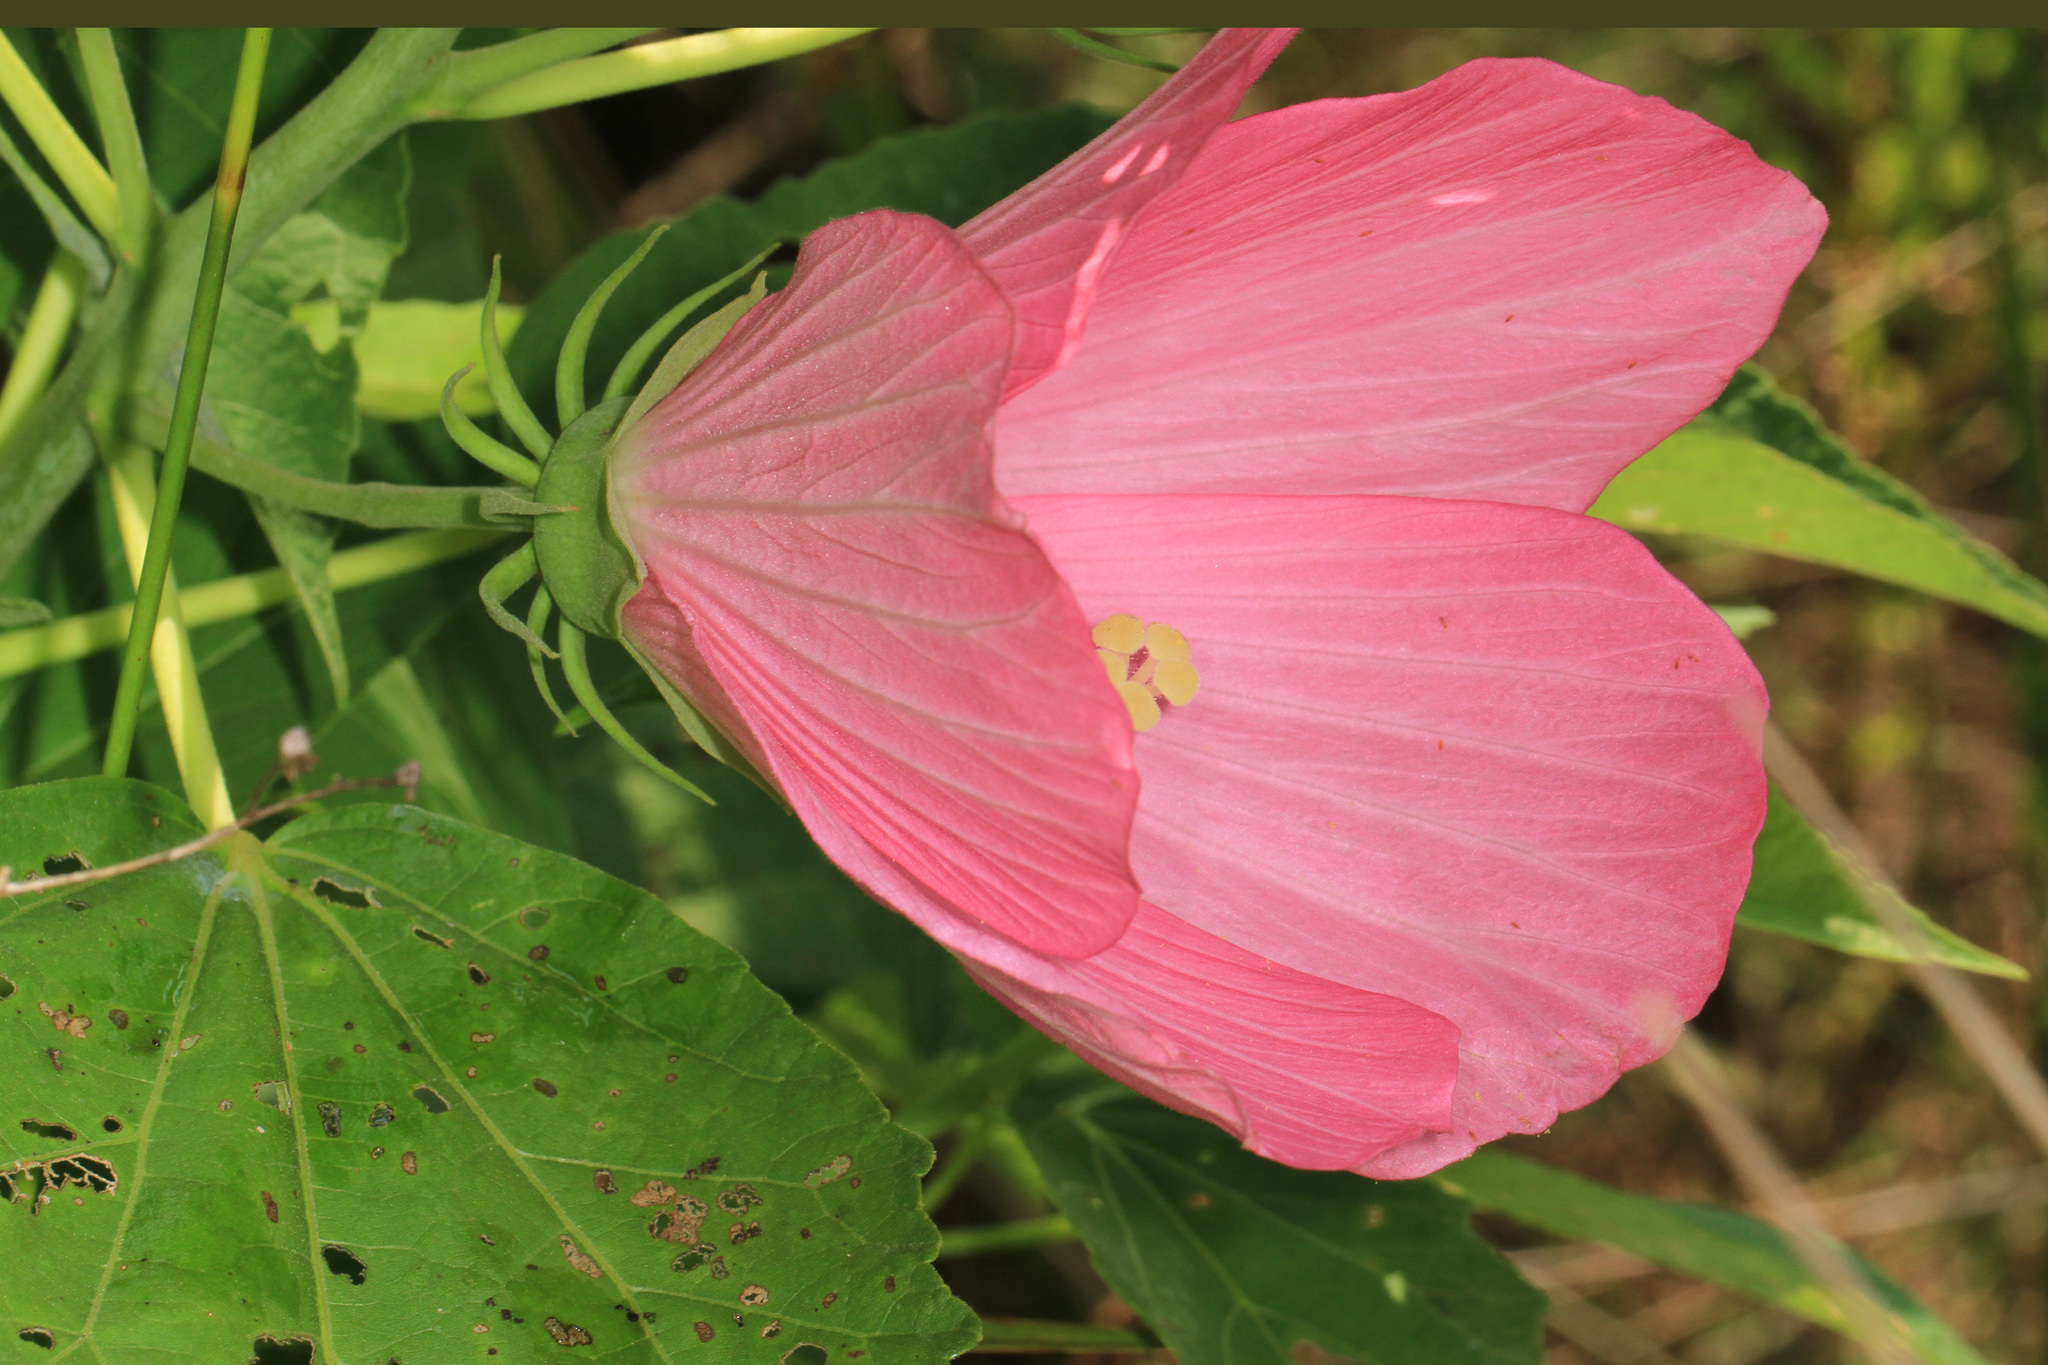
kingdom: Plantae
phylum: Tracheophyta
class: Magnoliopsida
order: Malvales
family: Malvaceae
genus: Hibiscus
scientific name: Hibiscus moscheutos
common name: Common rose-mallow
